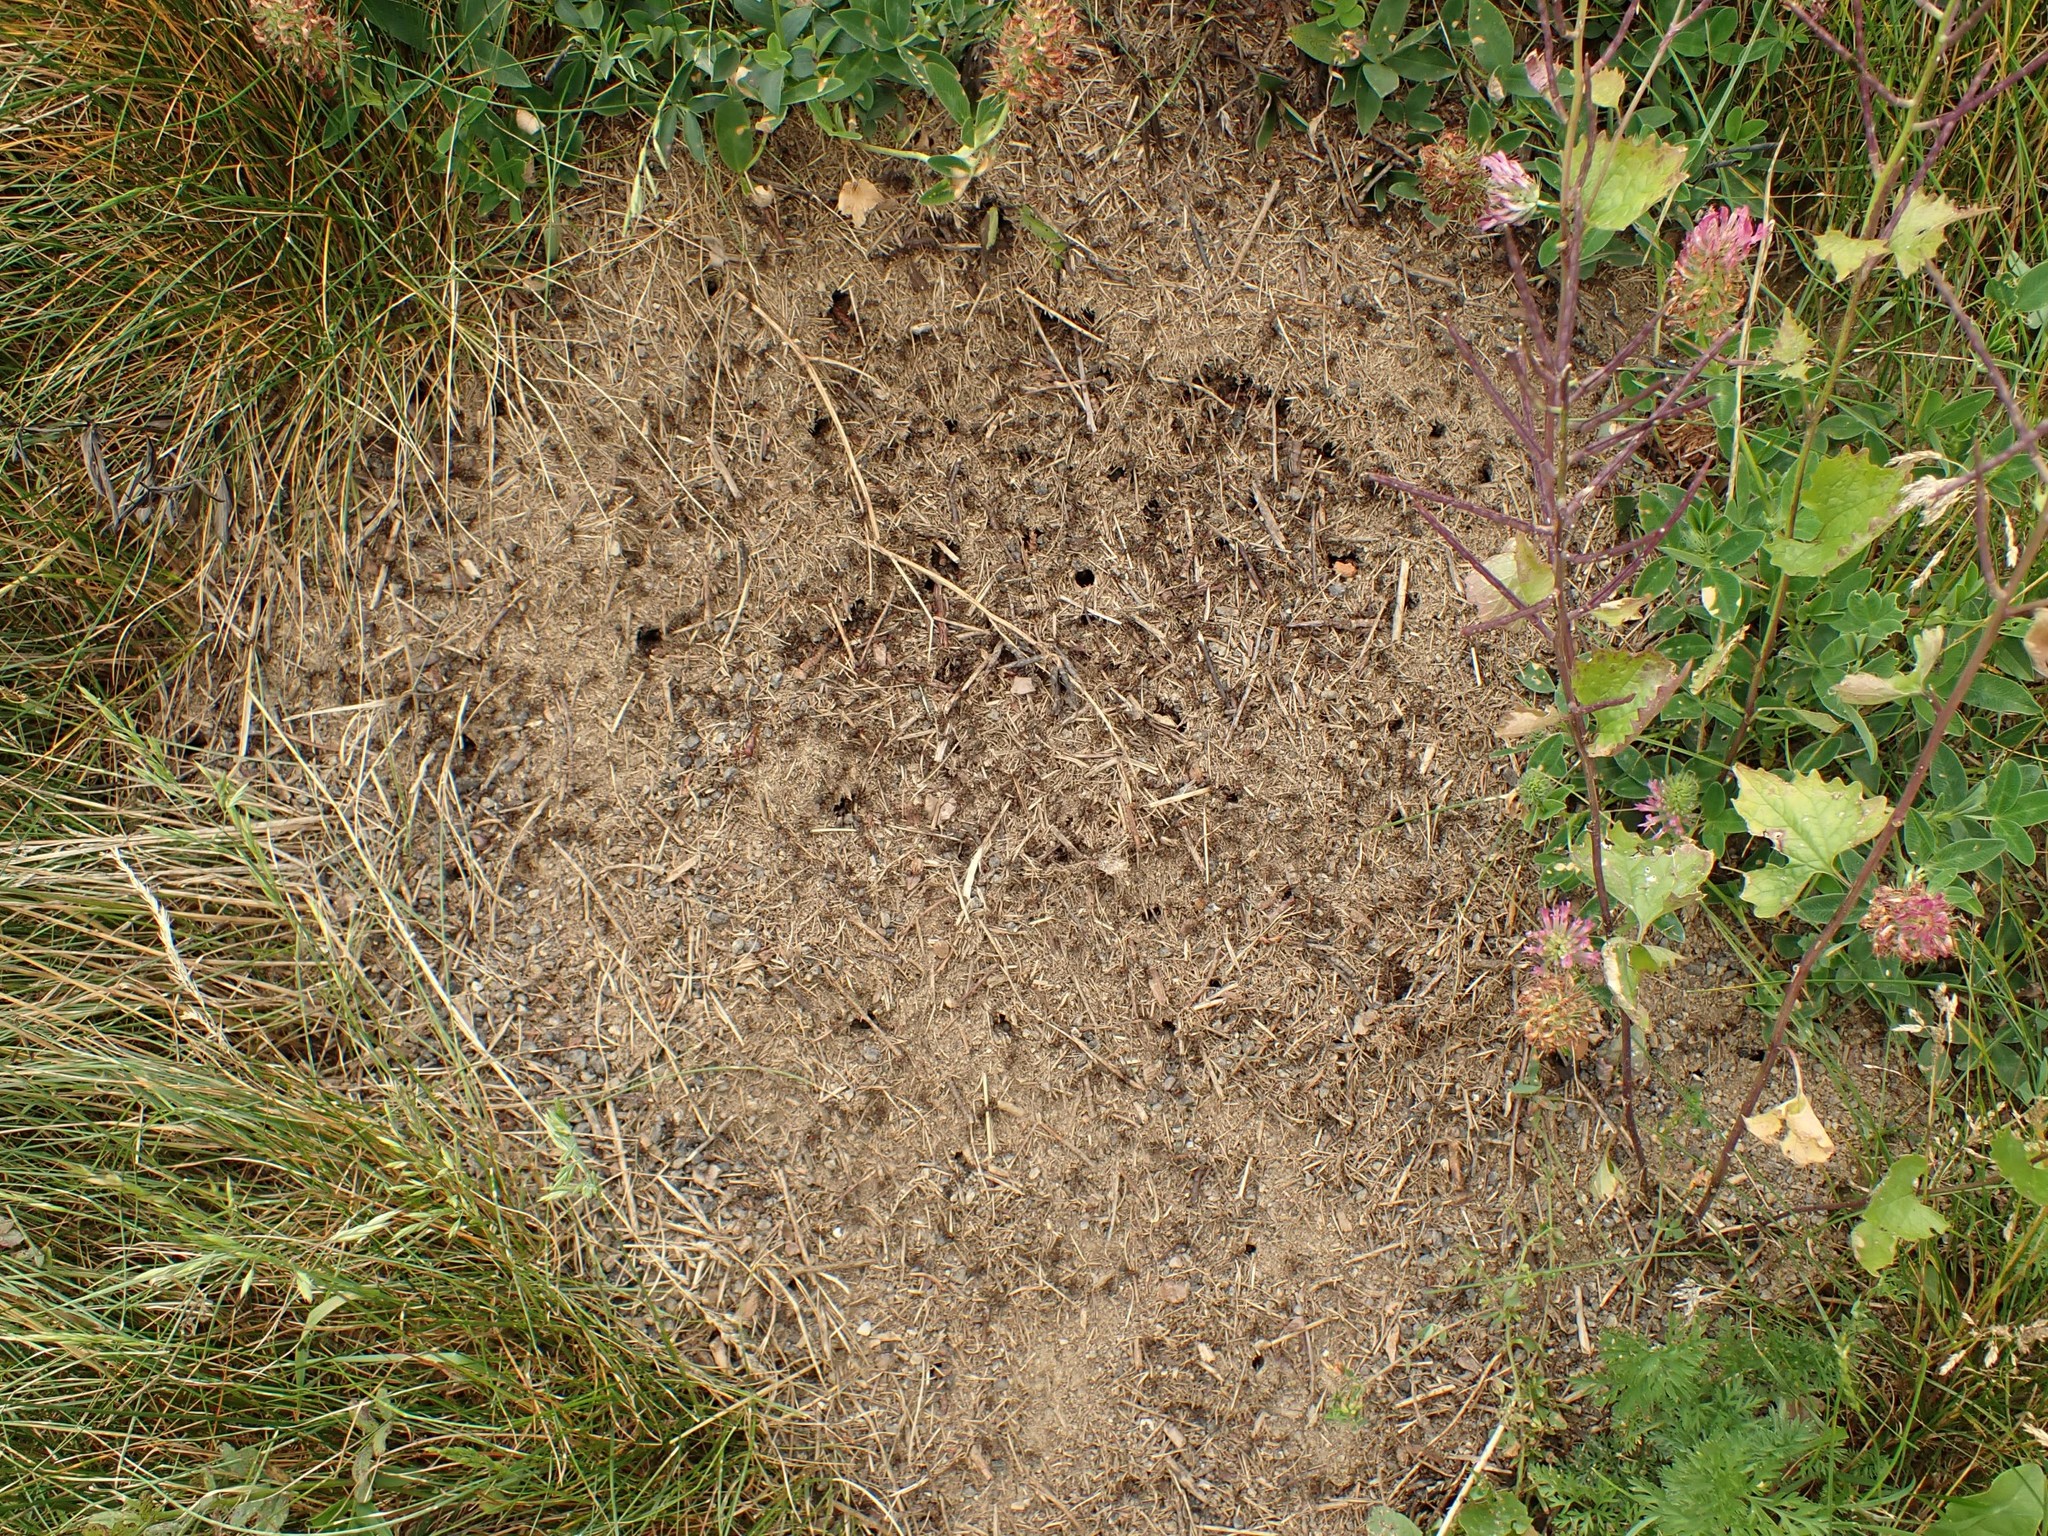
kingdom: Animalia
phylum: Arthropoda
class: Insecta
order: Hymenoptera
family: Formicidae
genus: Formica
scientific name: Formica pratensis
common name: European red wood ant
